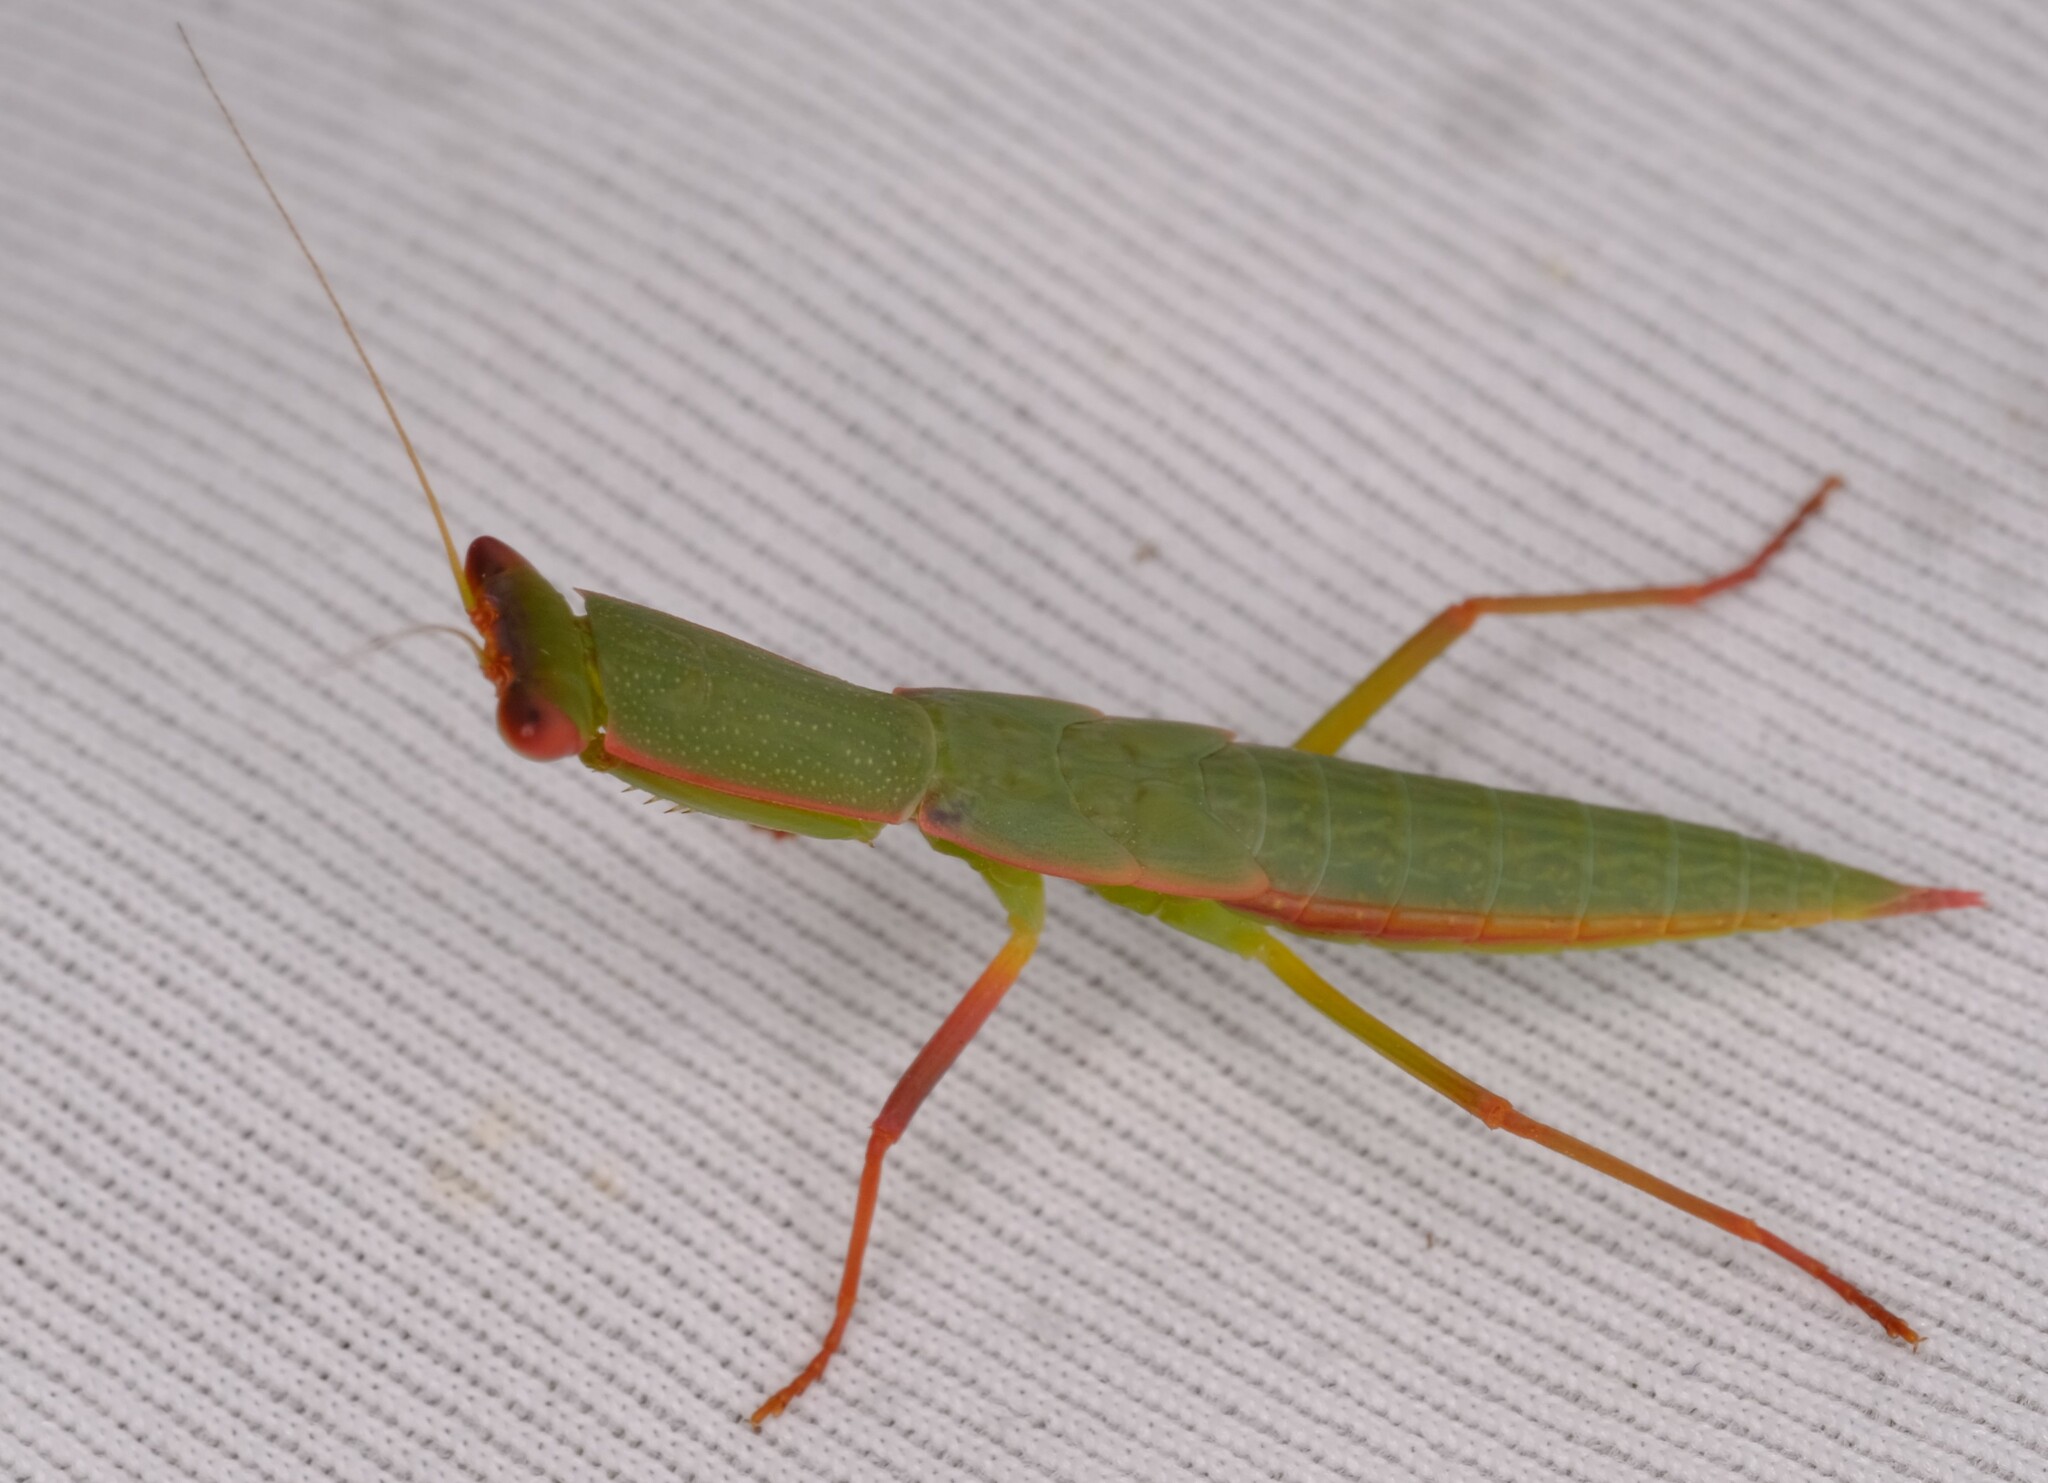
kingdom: Animalia
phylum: Arthropoda
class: Insecta
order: Mantodea
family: Mantidae
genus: Orthodera
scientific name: Orthodera ministralis
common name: Mantis
